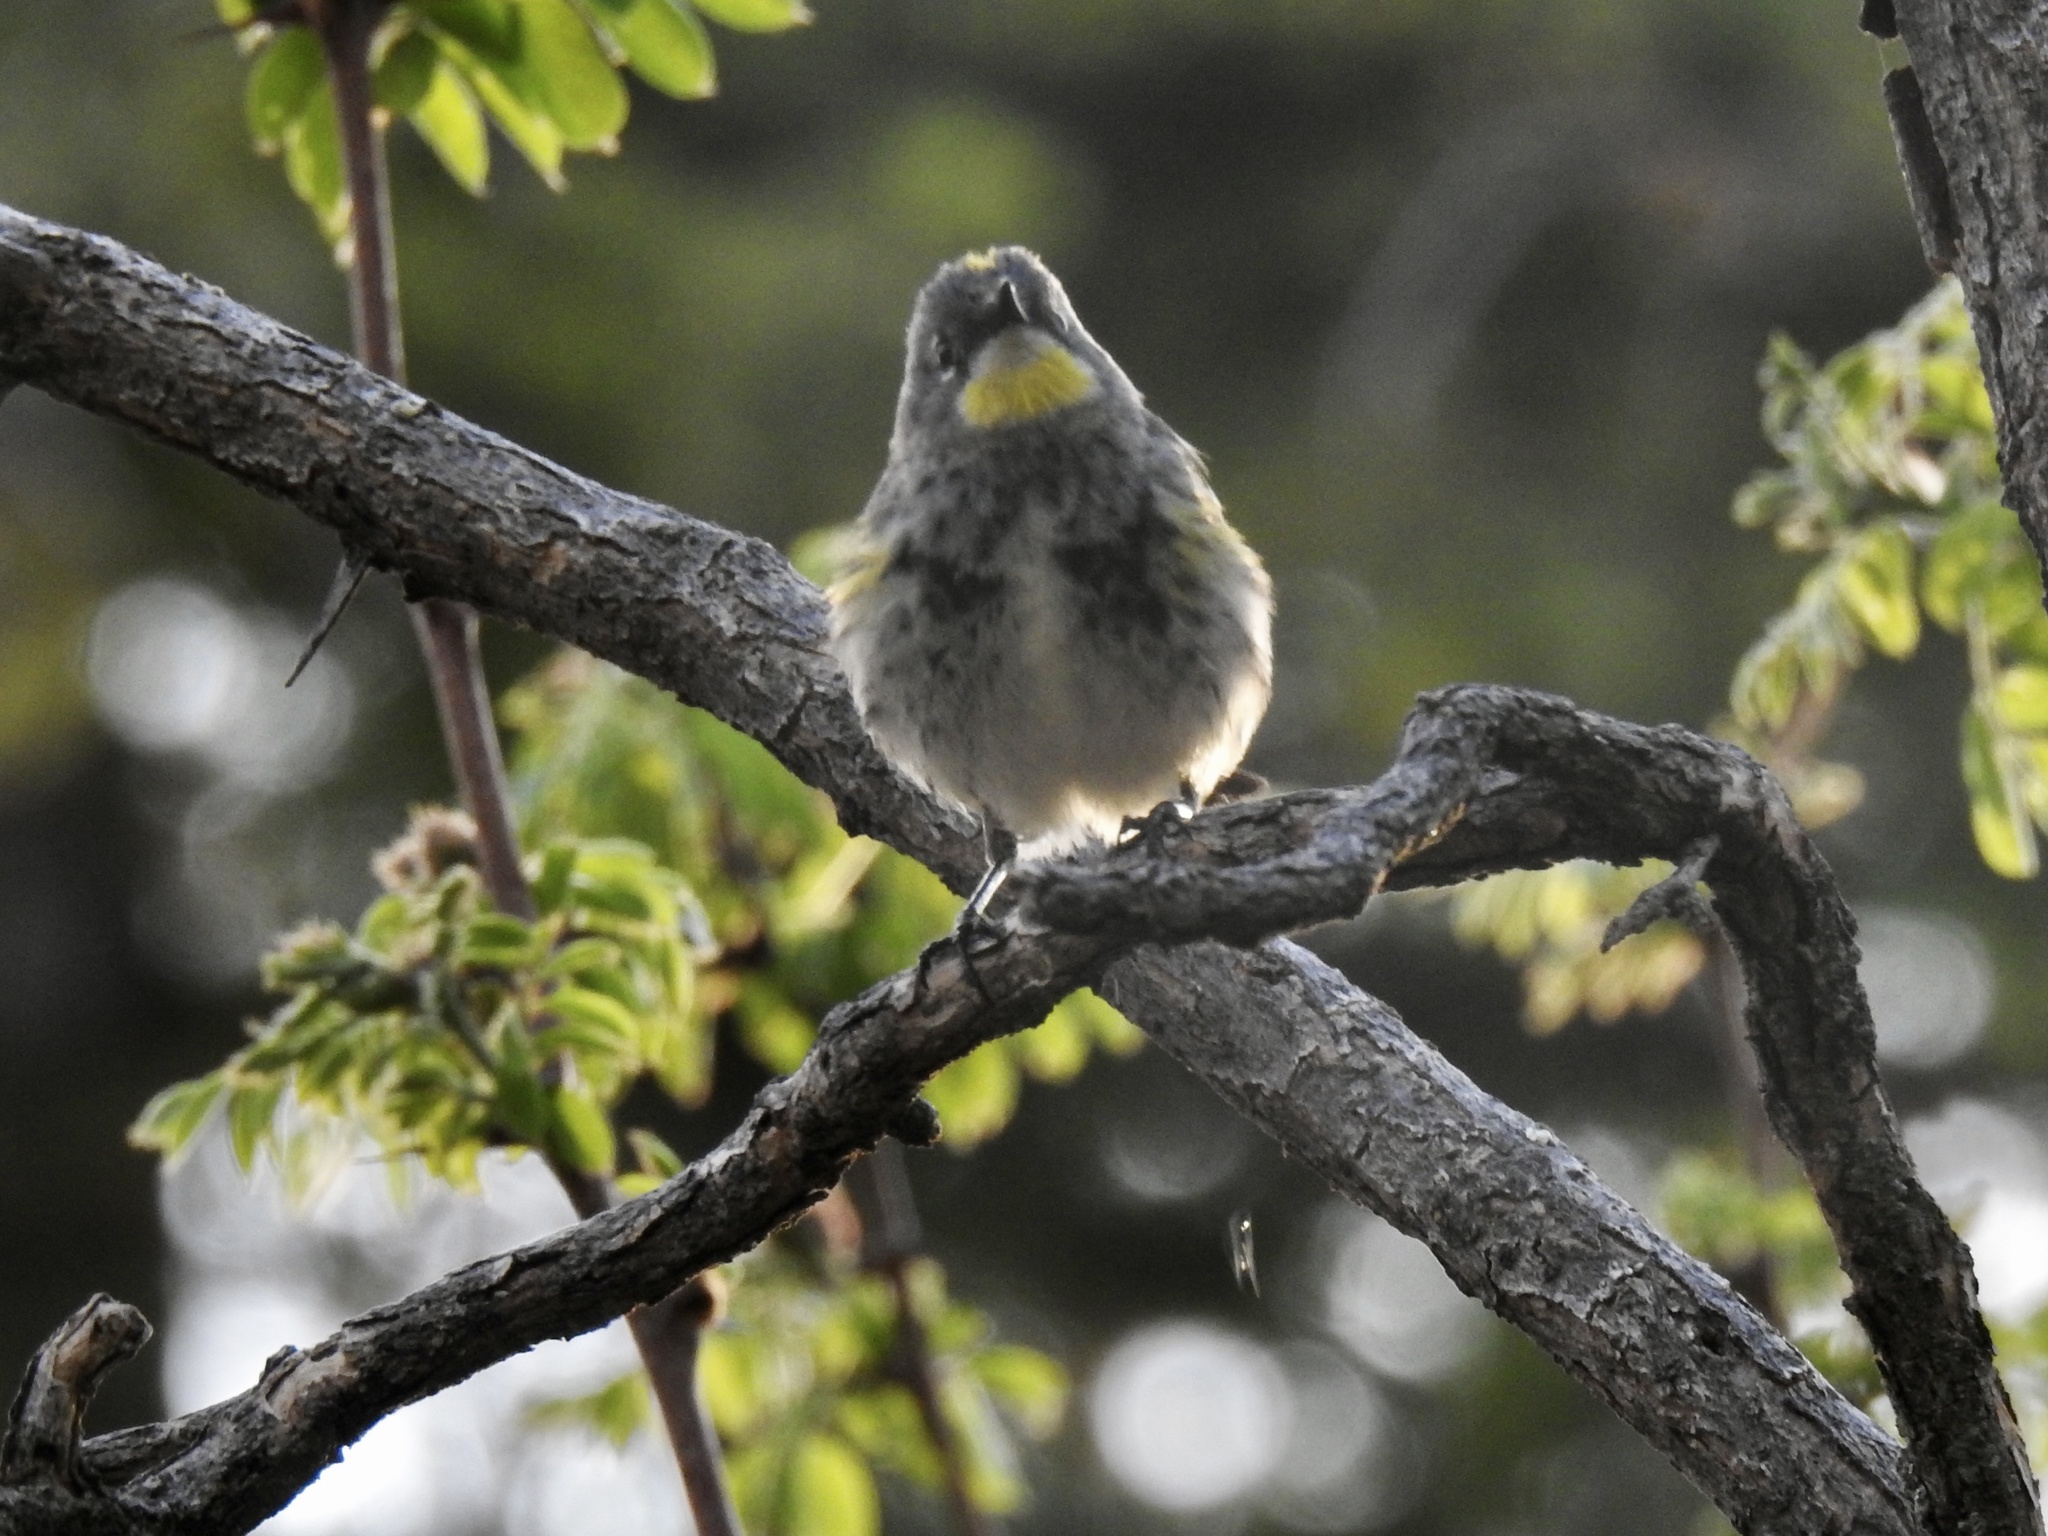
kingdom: Animalia
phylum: Chordata
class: Aves
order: Passeriformes
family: Parulidae
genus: Setophaga
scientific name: Setophaga coronata
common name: Myrtle warbler
